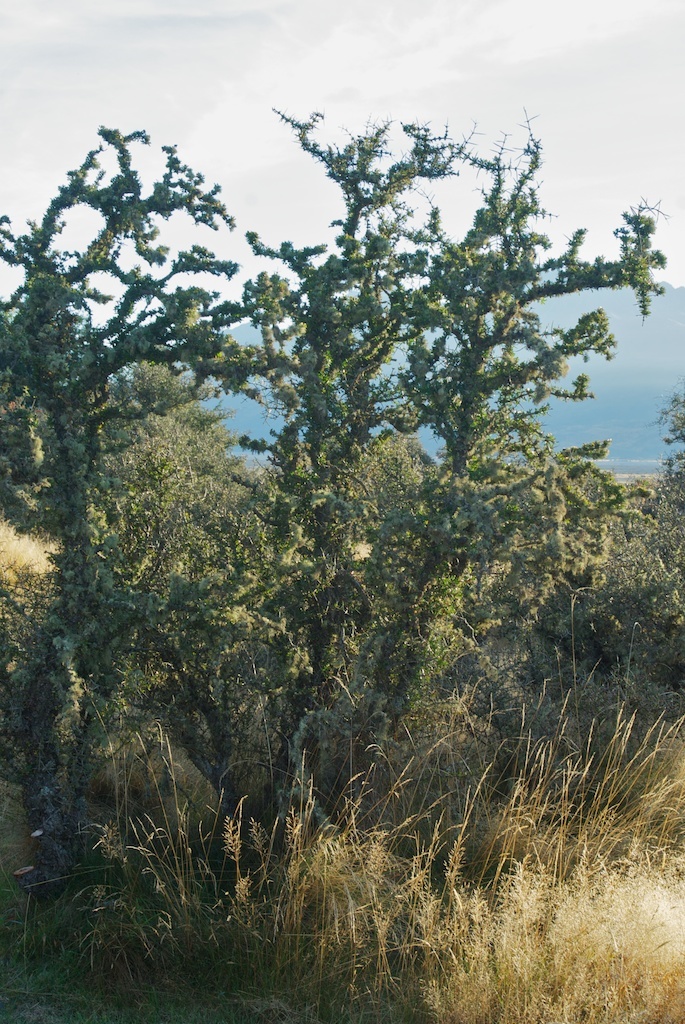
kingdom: Plantae
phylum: Tracheophyta
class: Magnoliopsida
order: Rosales
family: Rhamnaceae
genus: Discaria
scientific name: Discaria toumatou
